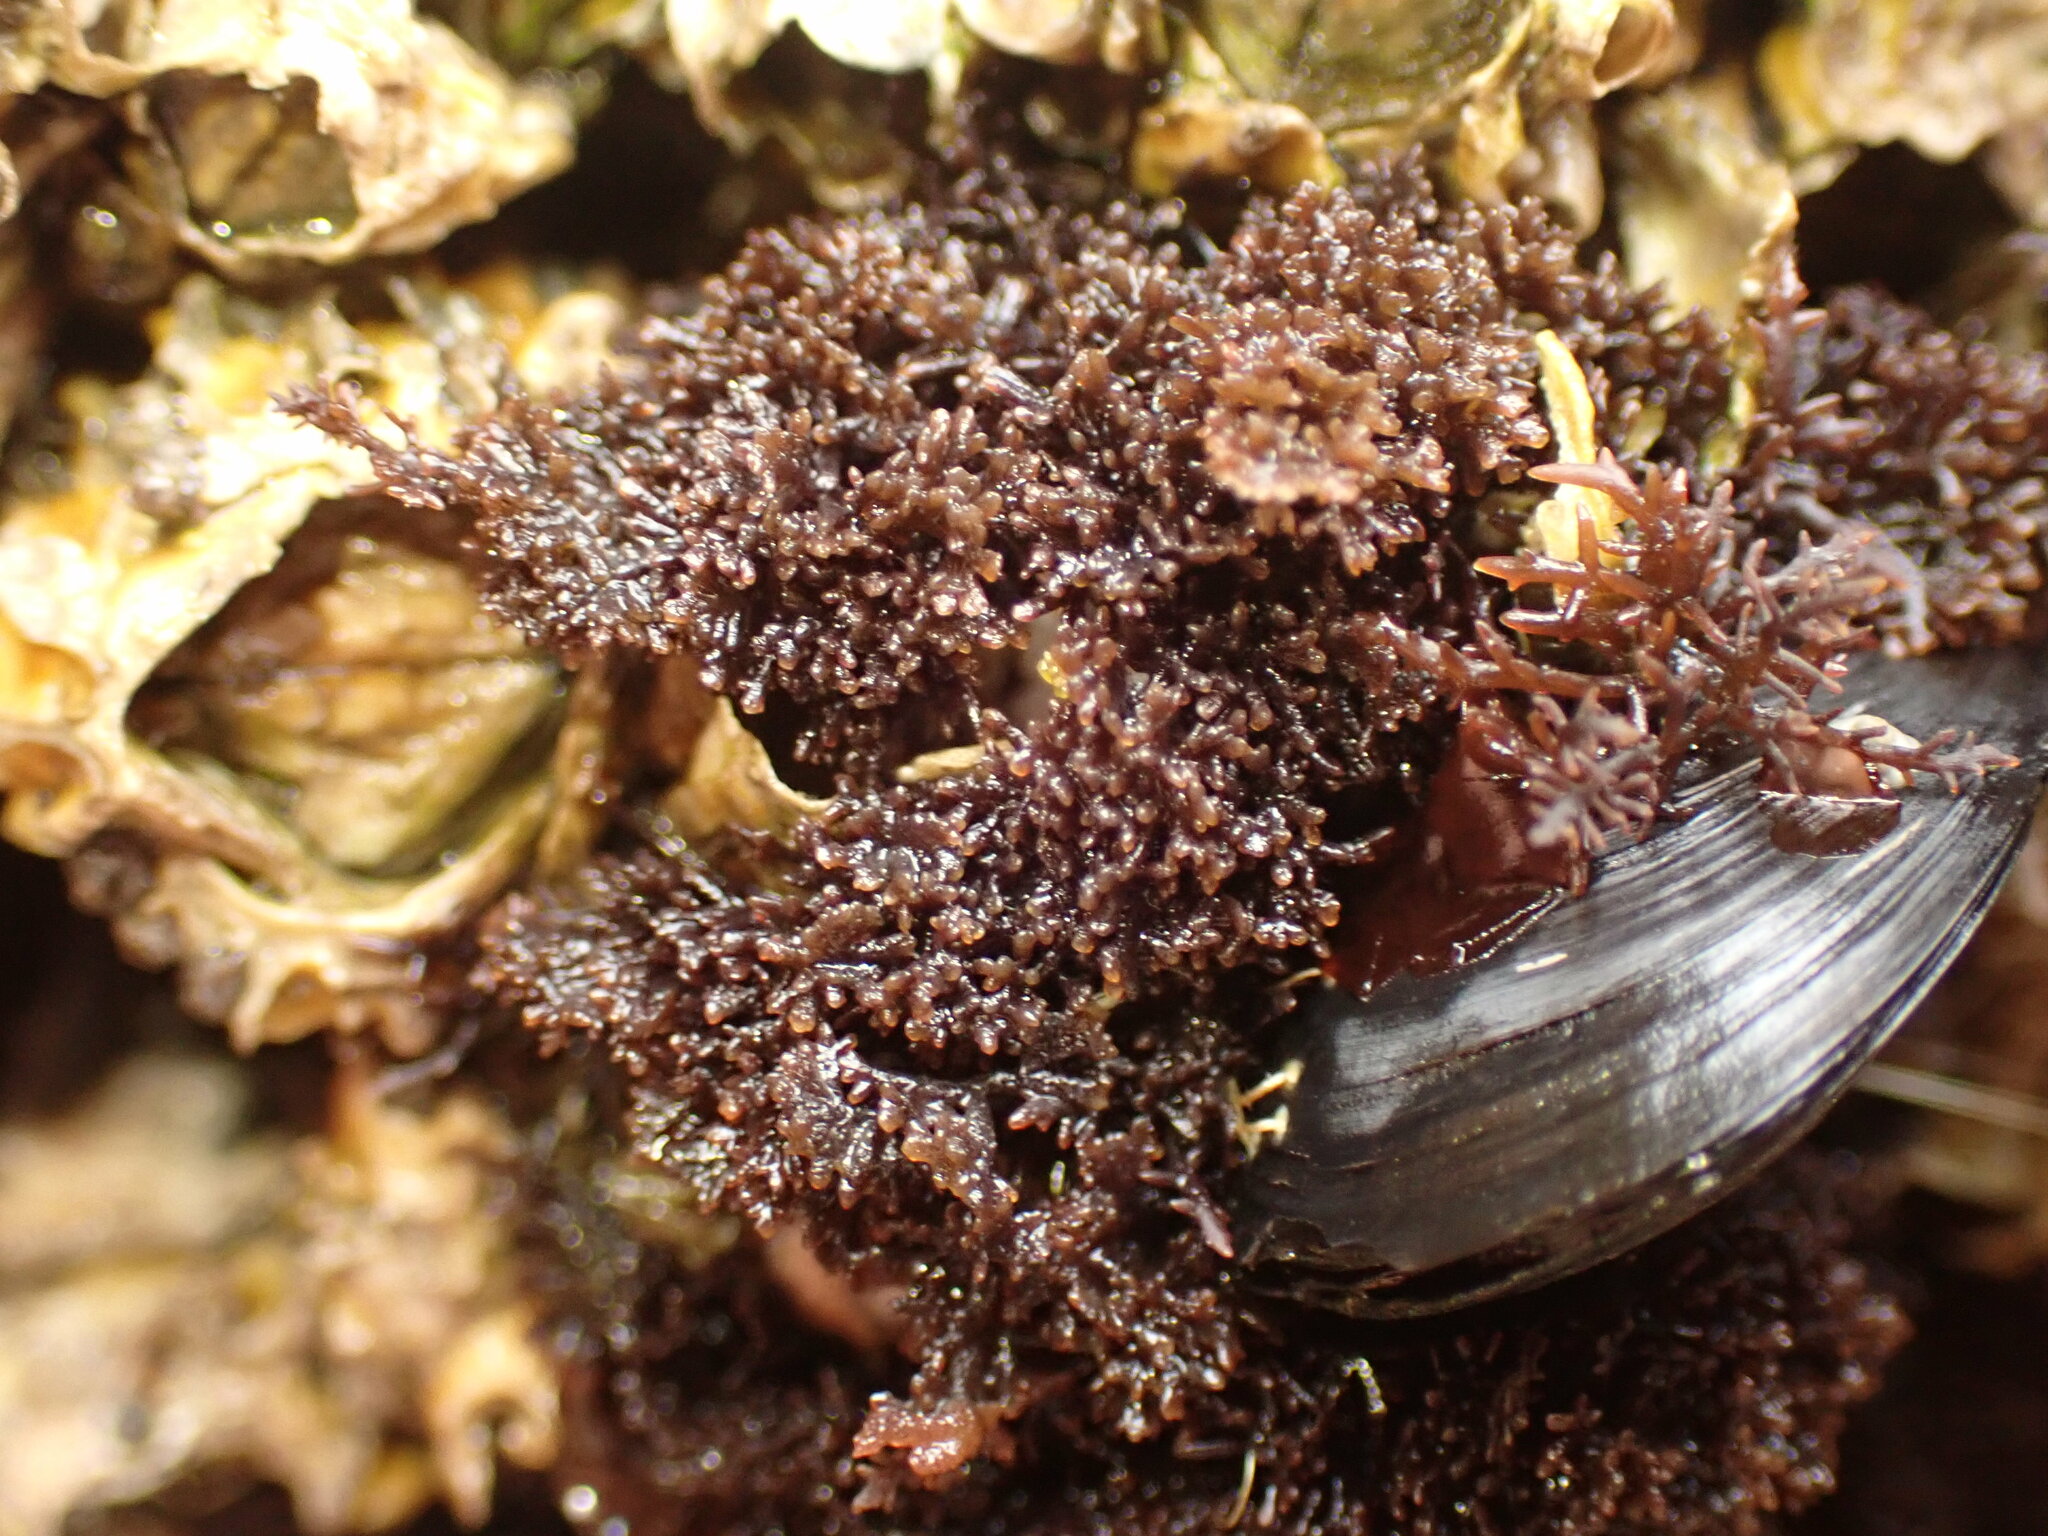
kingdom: Plantae
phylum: Rhodophyta
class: Florideophyceae
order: Gelidiales
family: Gelidiaceae
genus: Gelidium
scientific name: Gelidium caulacantheum
